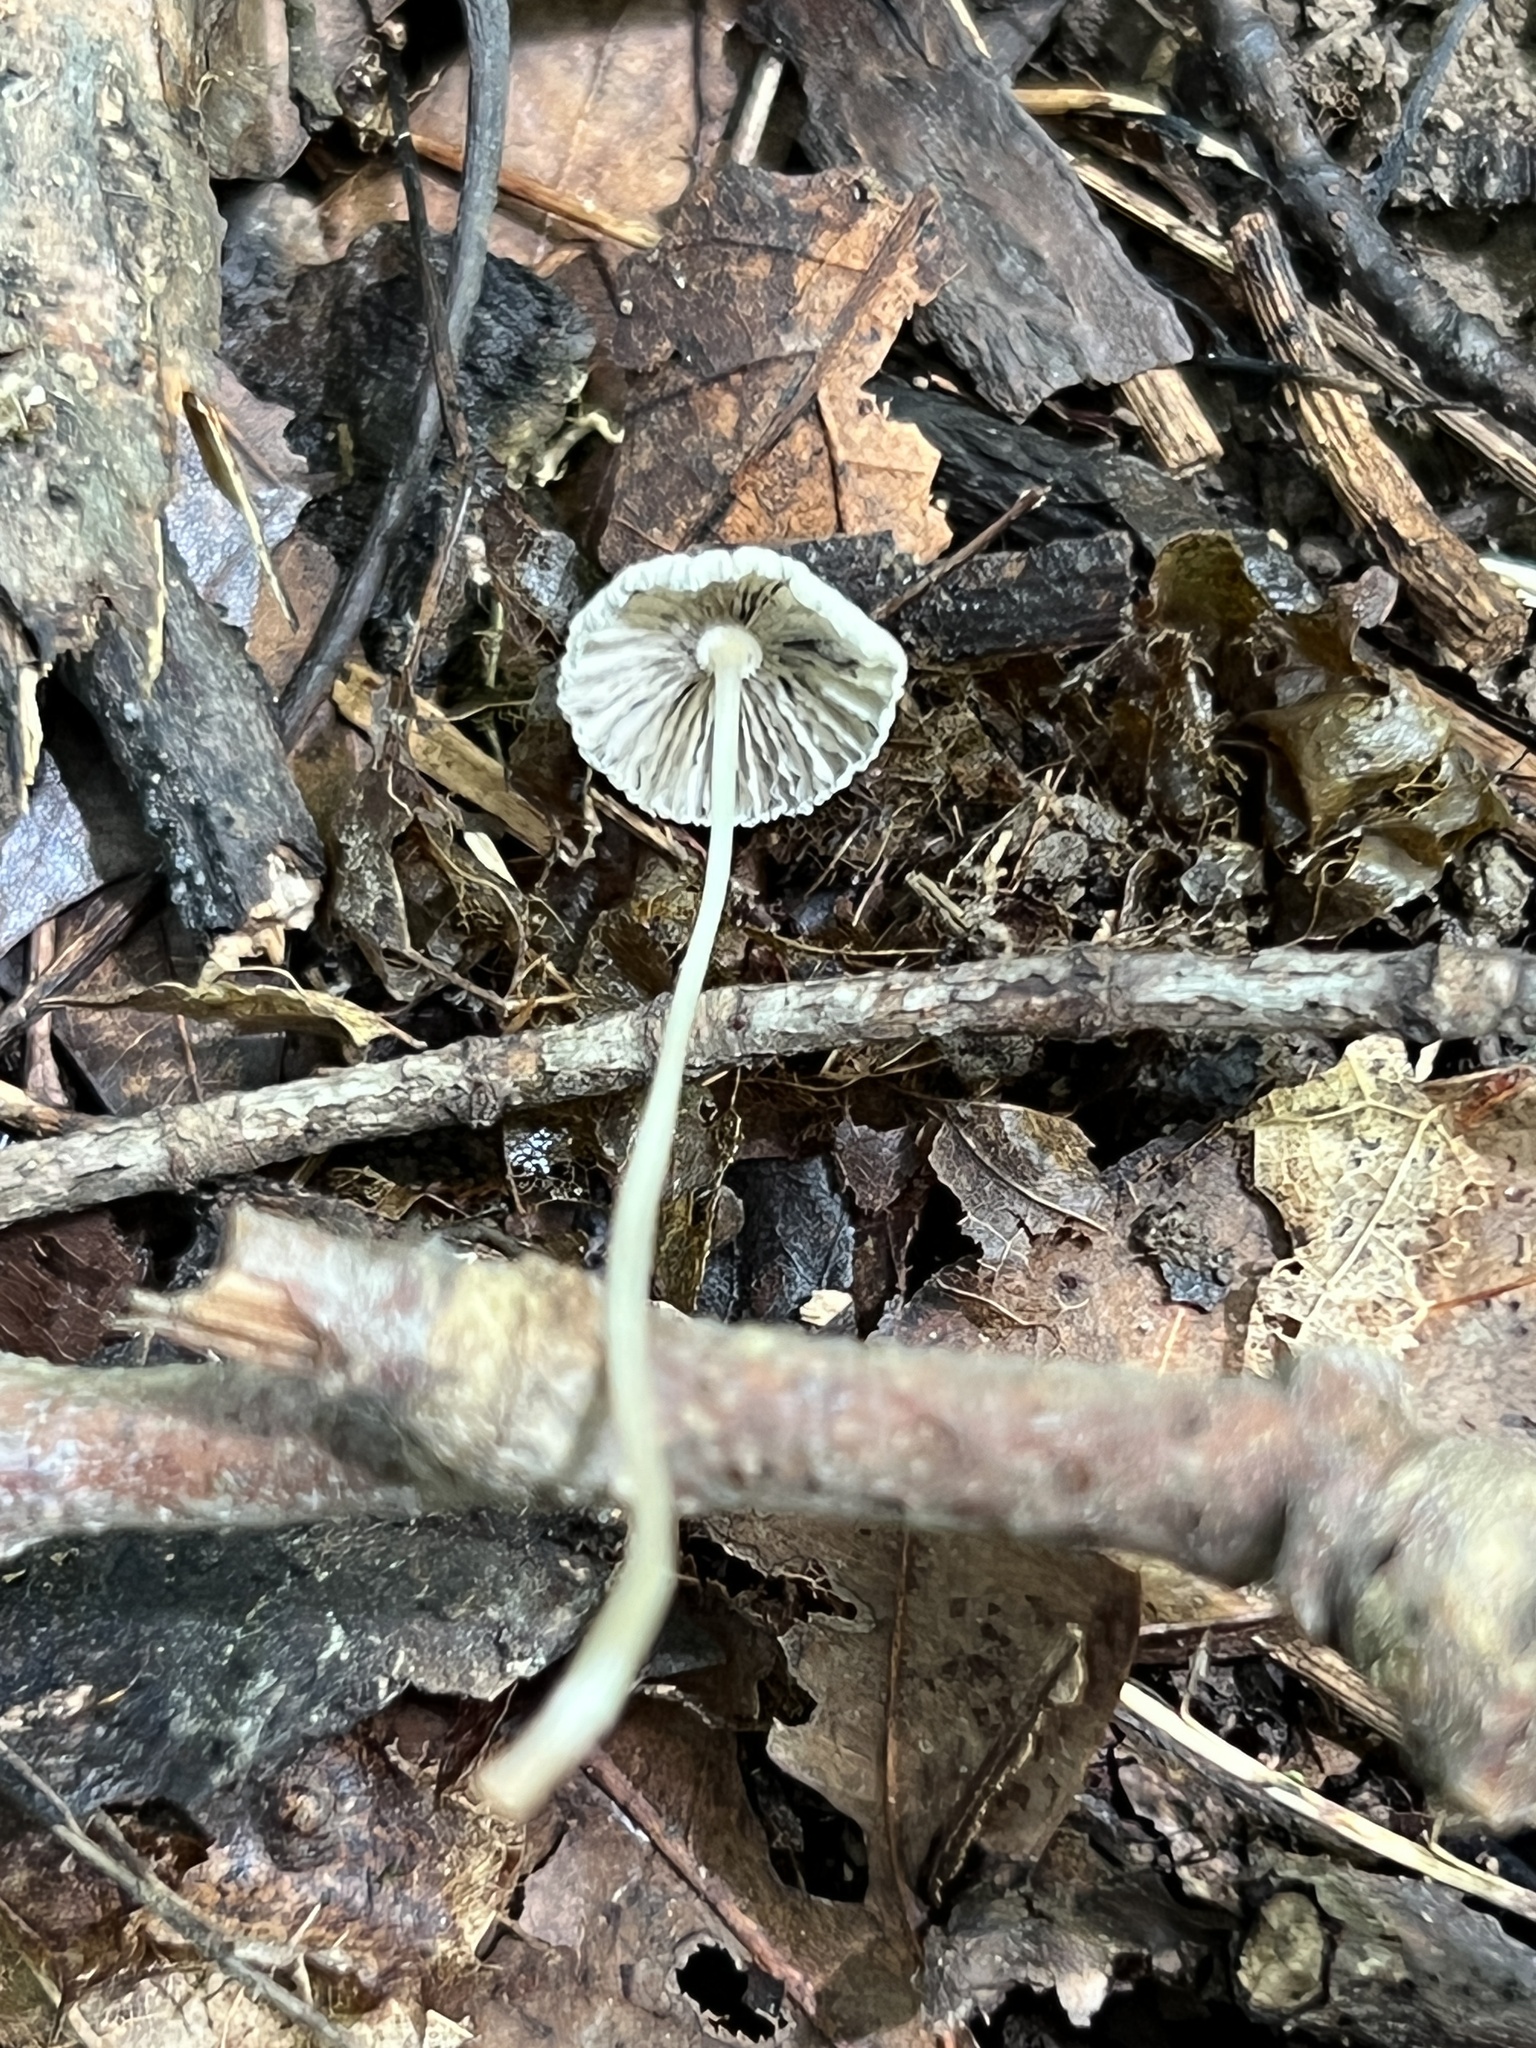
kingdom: Fungi
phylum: Basidiomycota
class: Agaricomycetes
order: Agaricales
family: Psathyrellaceae
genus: Parasola
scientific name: Parasola plicatilis
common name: Pleated inkcap
